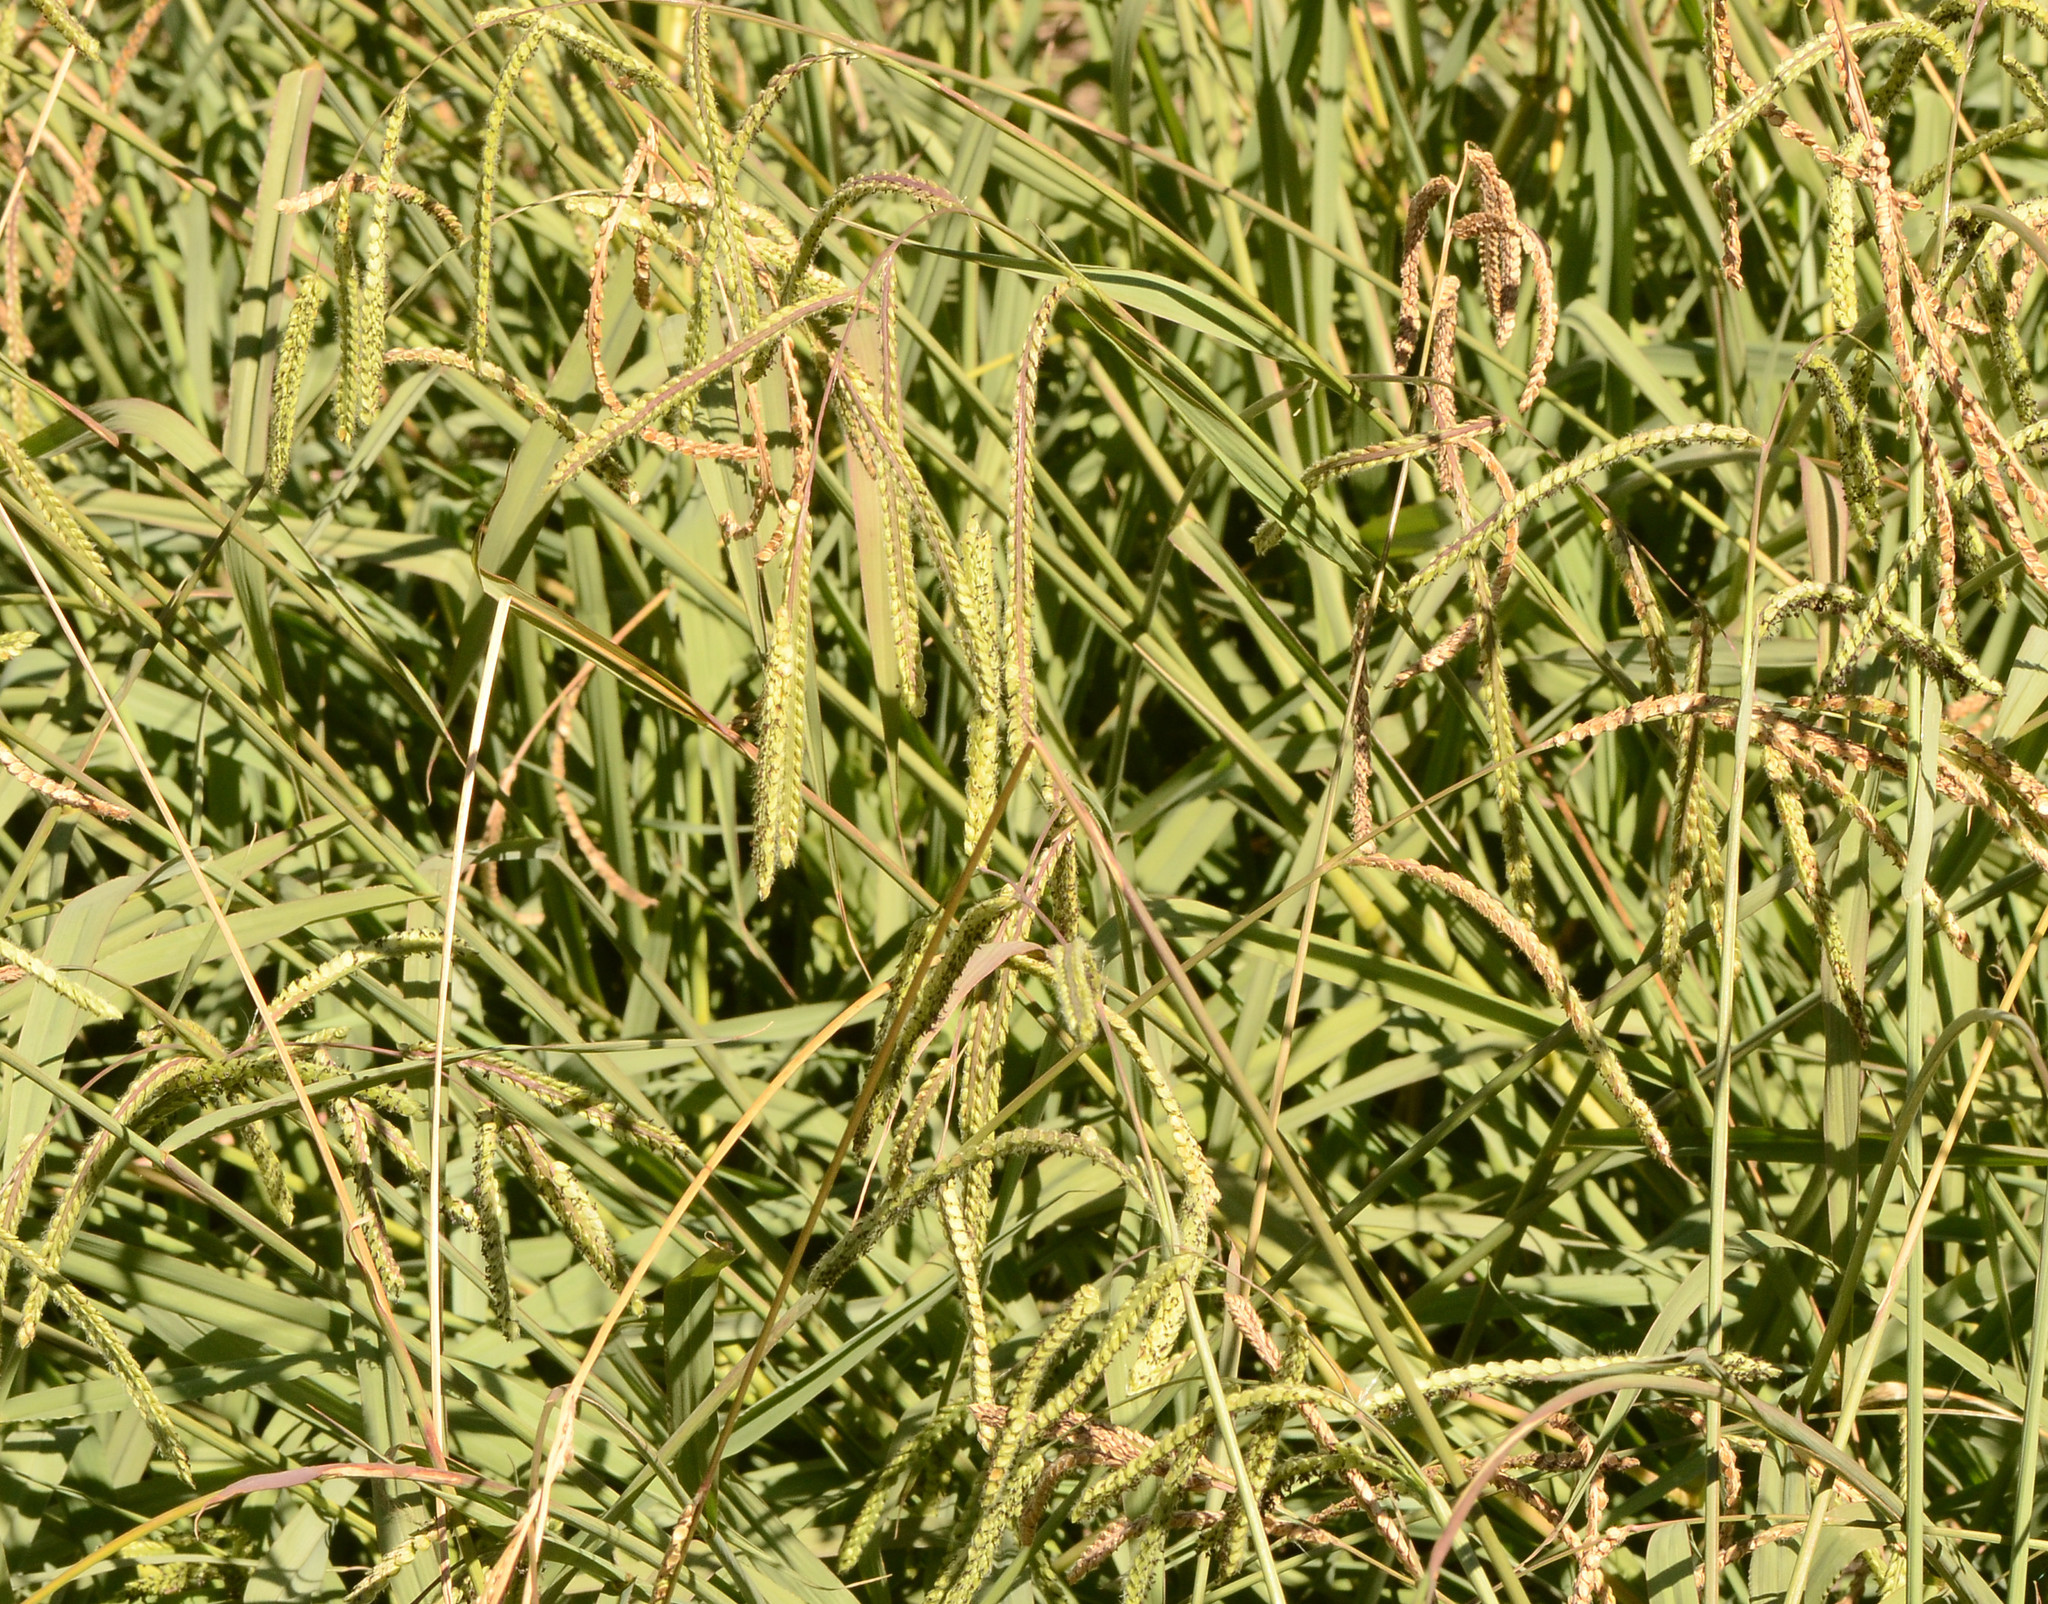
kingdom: Plantae
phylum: Tracheophyta
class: Liliopsida
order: Poales
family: Poaceae
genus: Paspalum
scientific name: Paspalum dilatatum
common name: Dallisgrass
